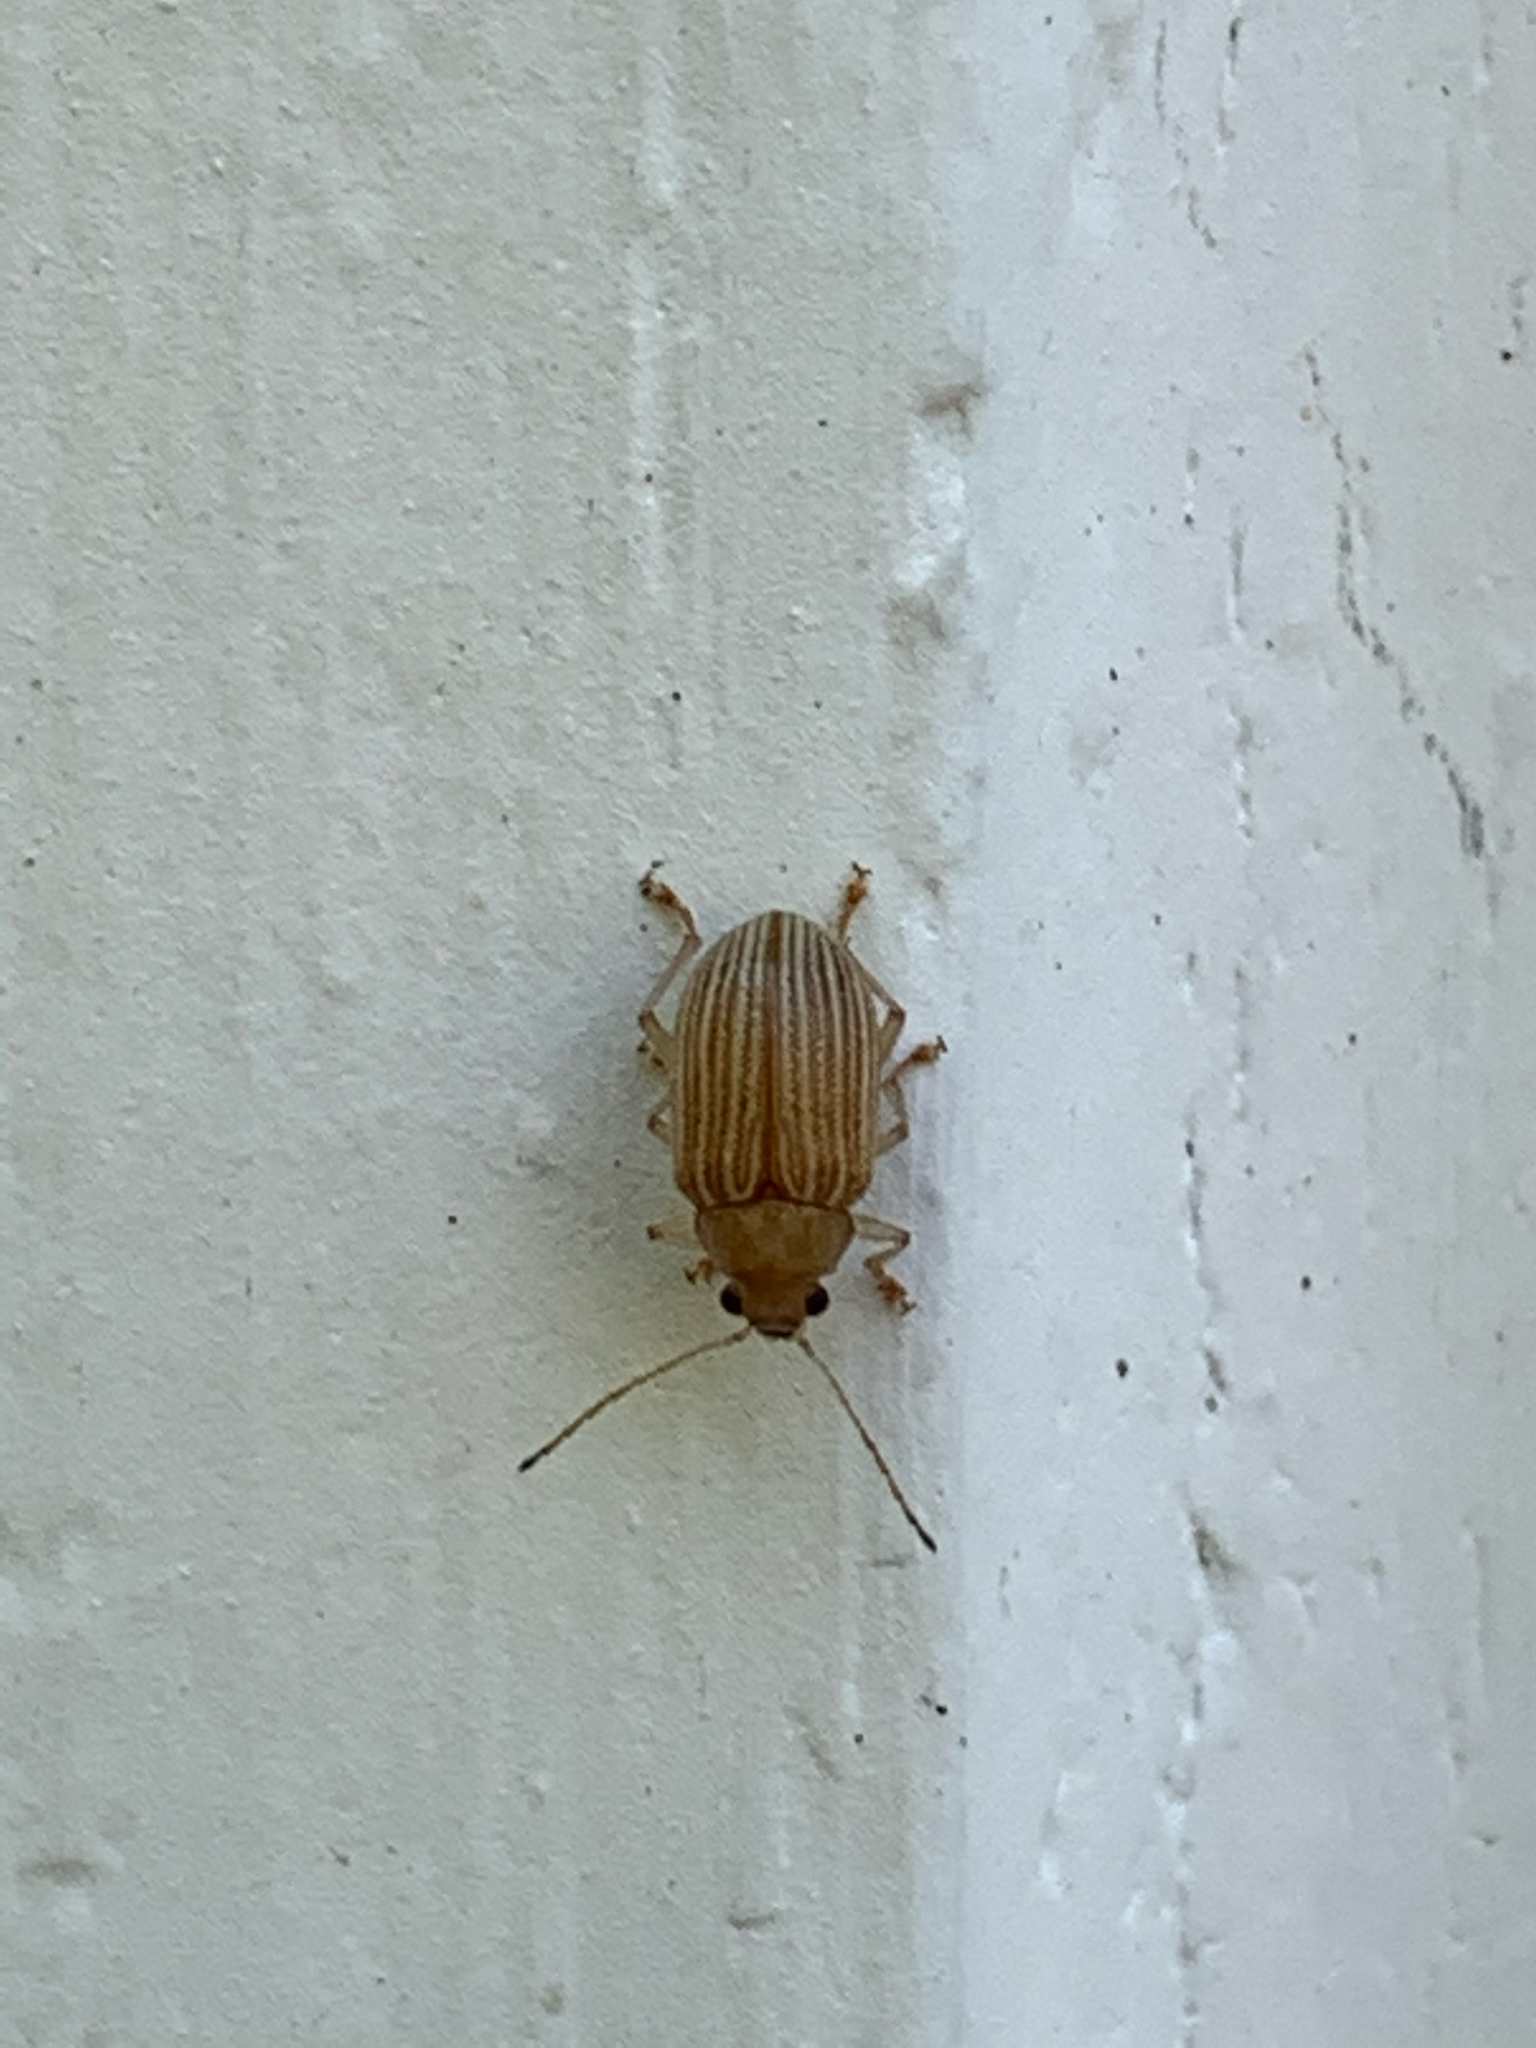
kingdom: Animalia
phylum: Arthropoda
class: Insecta
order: Coleoptera
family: Chrysomelidae
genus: Colaspis
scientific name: Colaspis brunnea
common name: Grape colaspis
